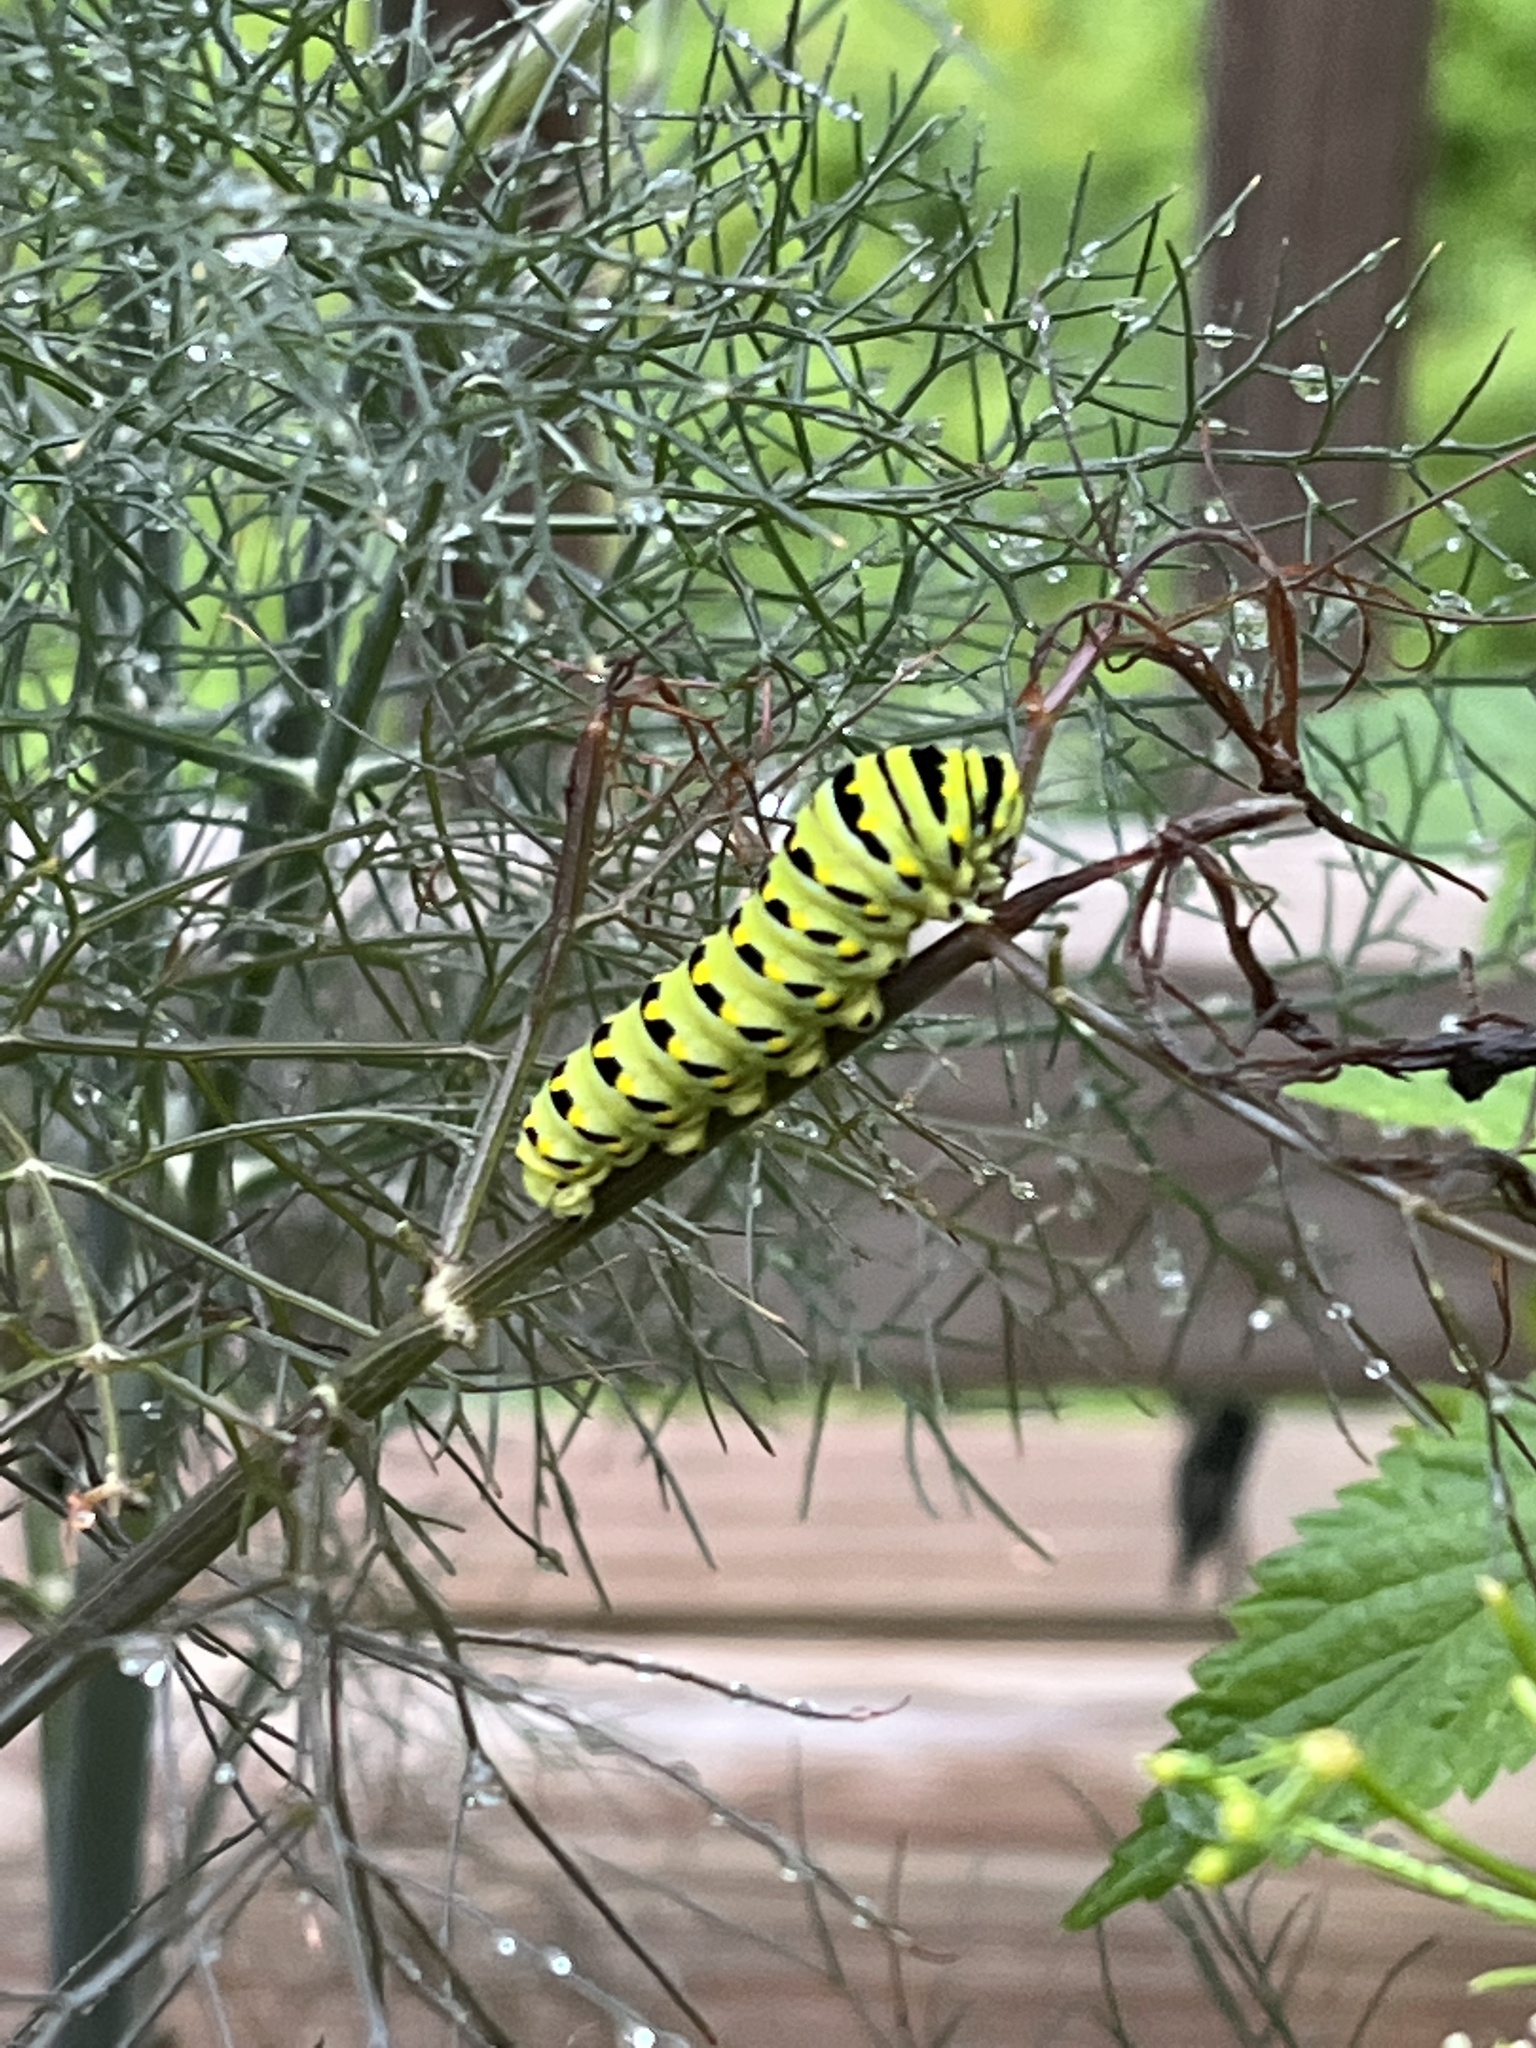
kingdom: Animalia
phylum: Arthropoda
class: Insecta
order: Lepidoptera
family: Papilionidae
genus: Papilio
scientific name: Papilio polyxenes
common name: Black swallowtail
